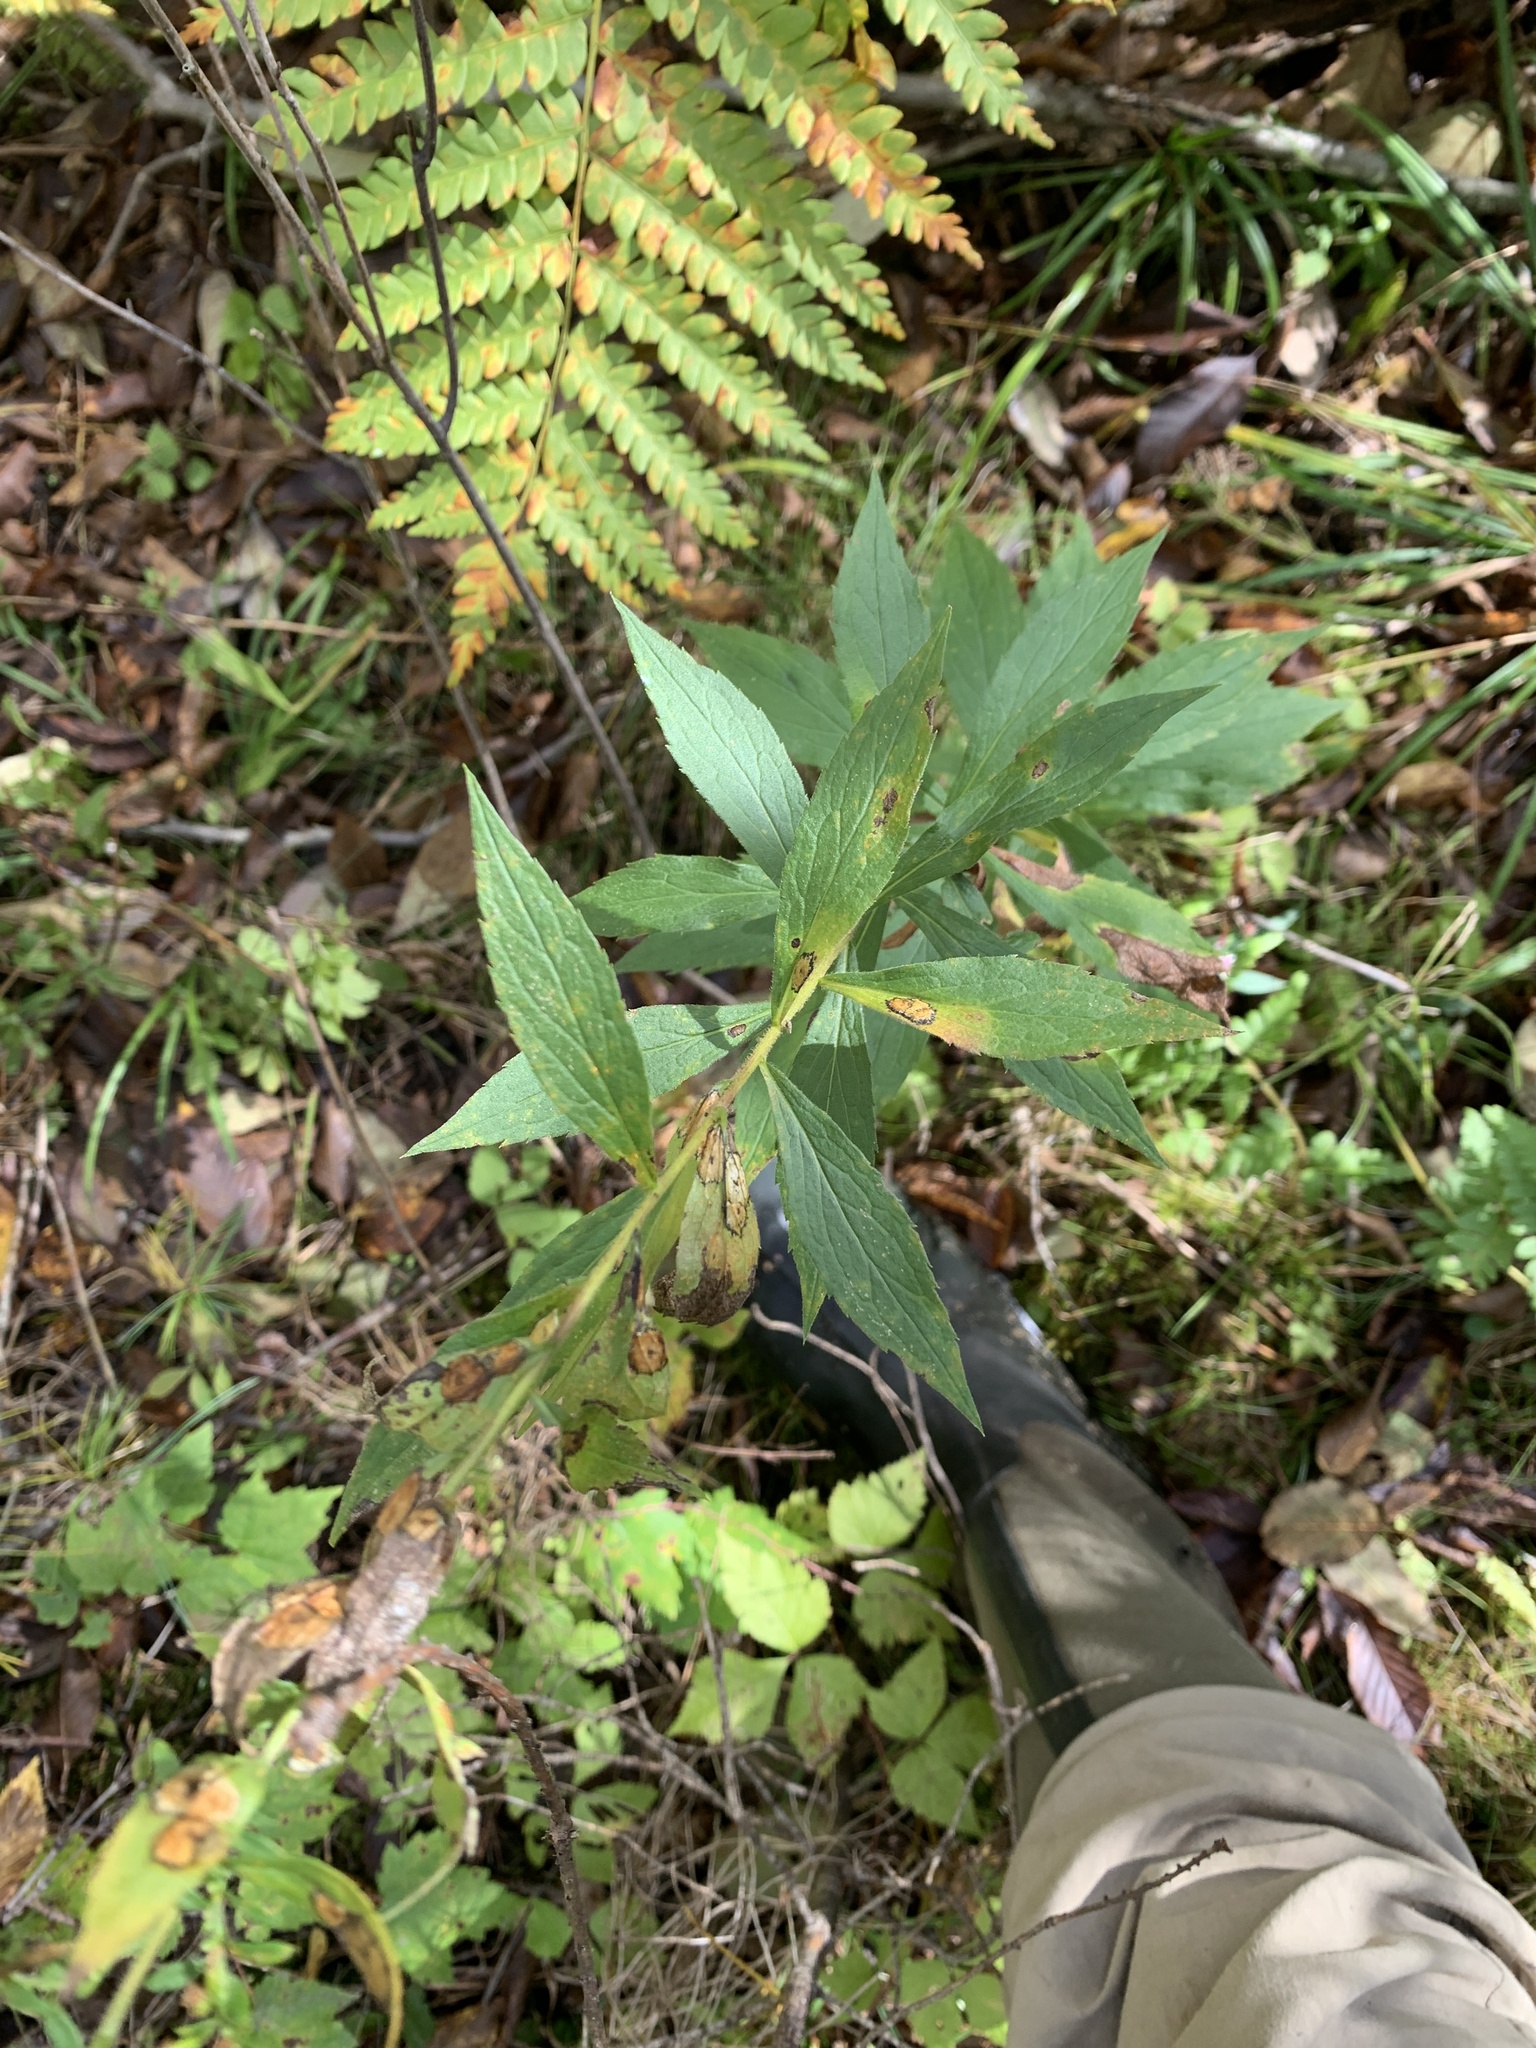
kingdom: Plantae
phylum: Tracheophyta
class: Magnoliopsida
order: Asterales
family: Asteraceae
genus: Solidago
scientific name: Solidago rugosa
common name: Rough-stemmed goldenrod
